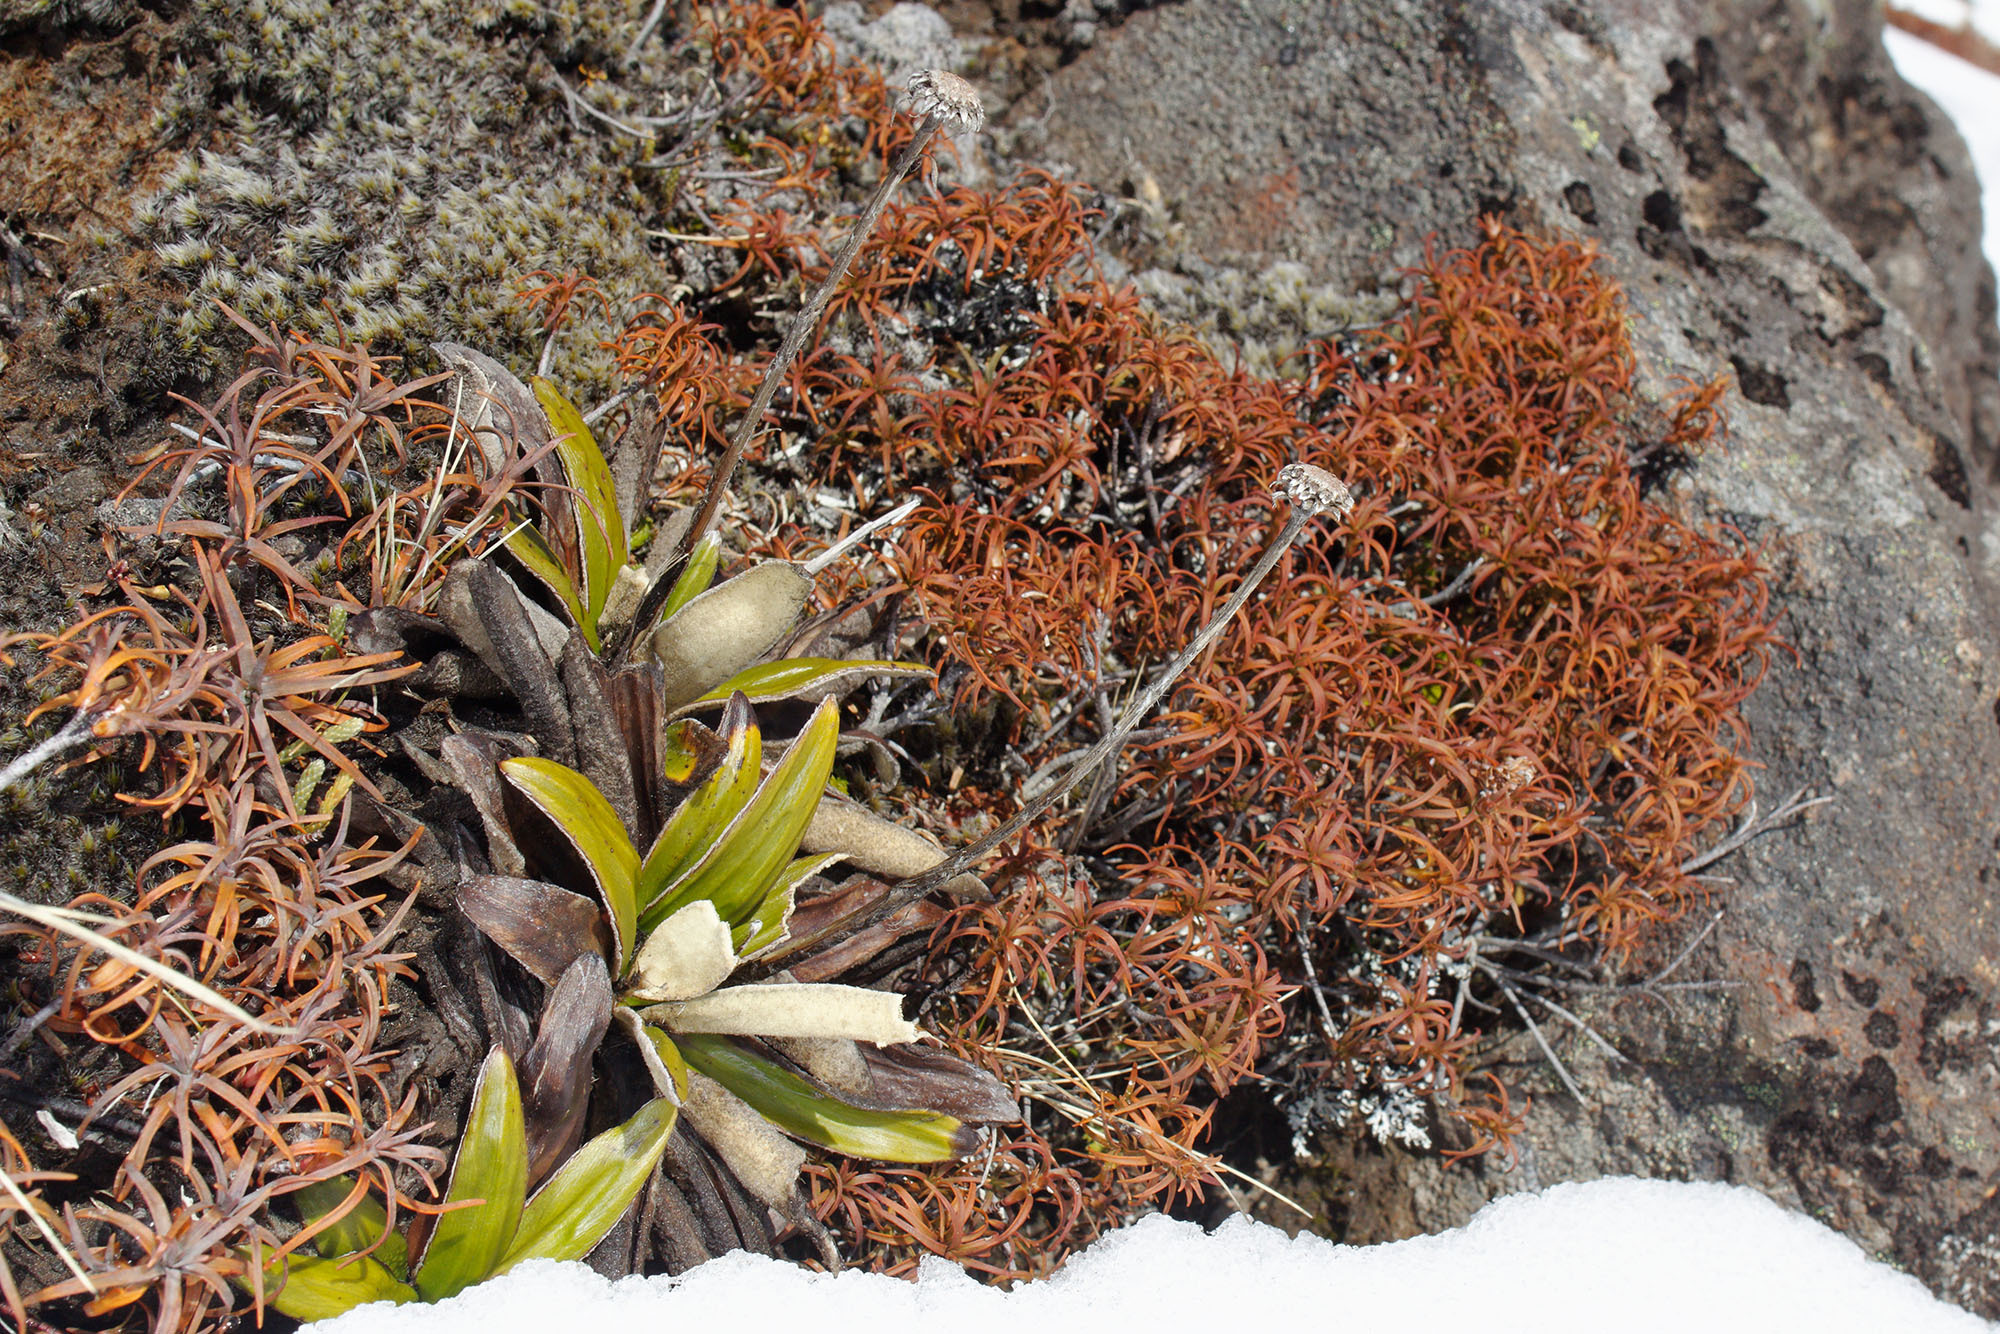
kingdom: Plantae
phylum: Tracheophyta
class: Magnoliopsida
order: Asterales
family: Asteraceae
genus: Celmisia
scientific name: Celmisia spectabilis
